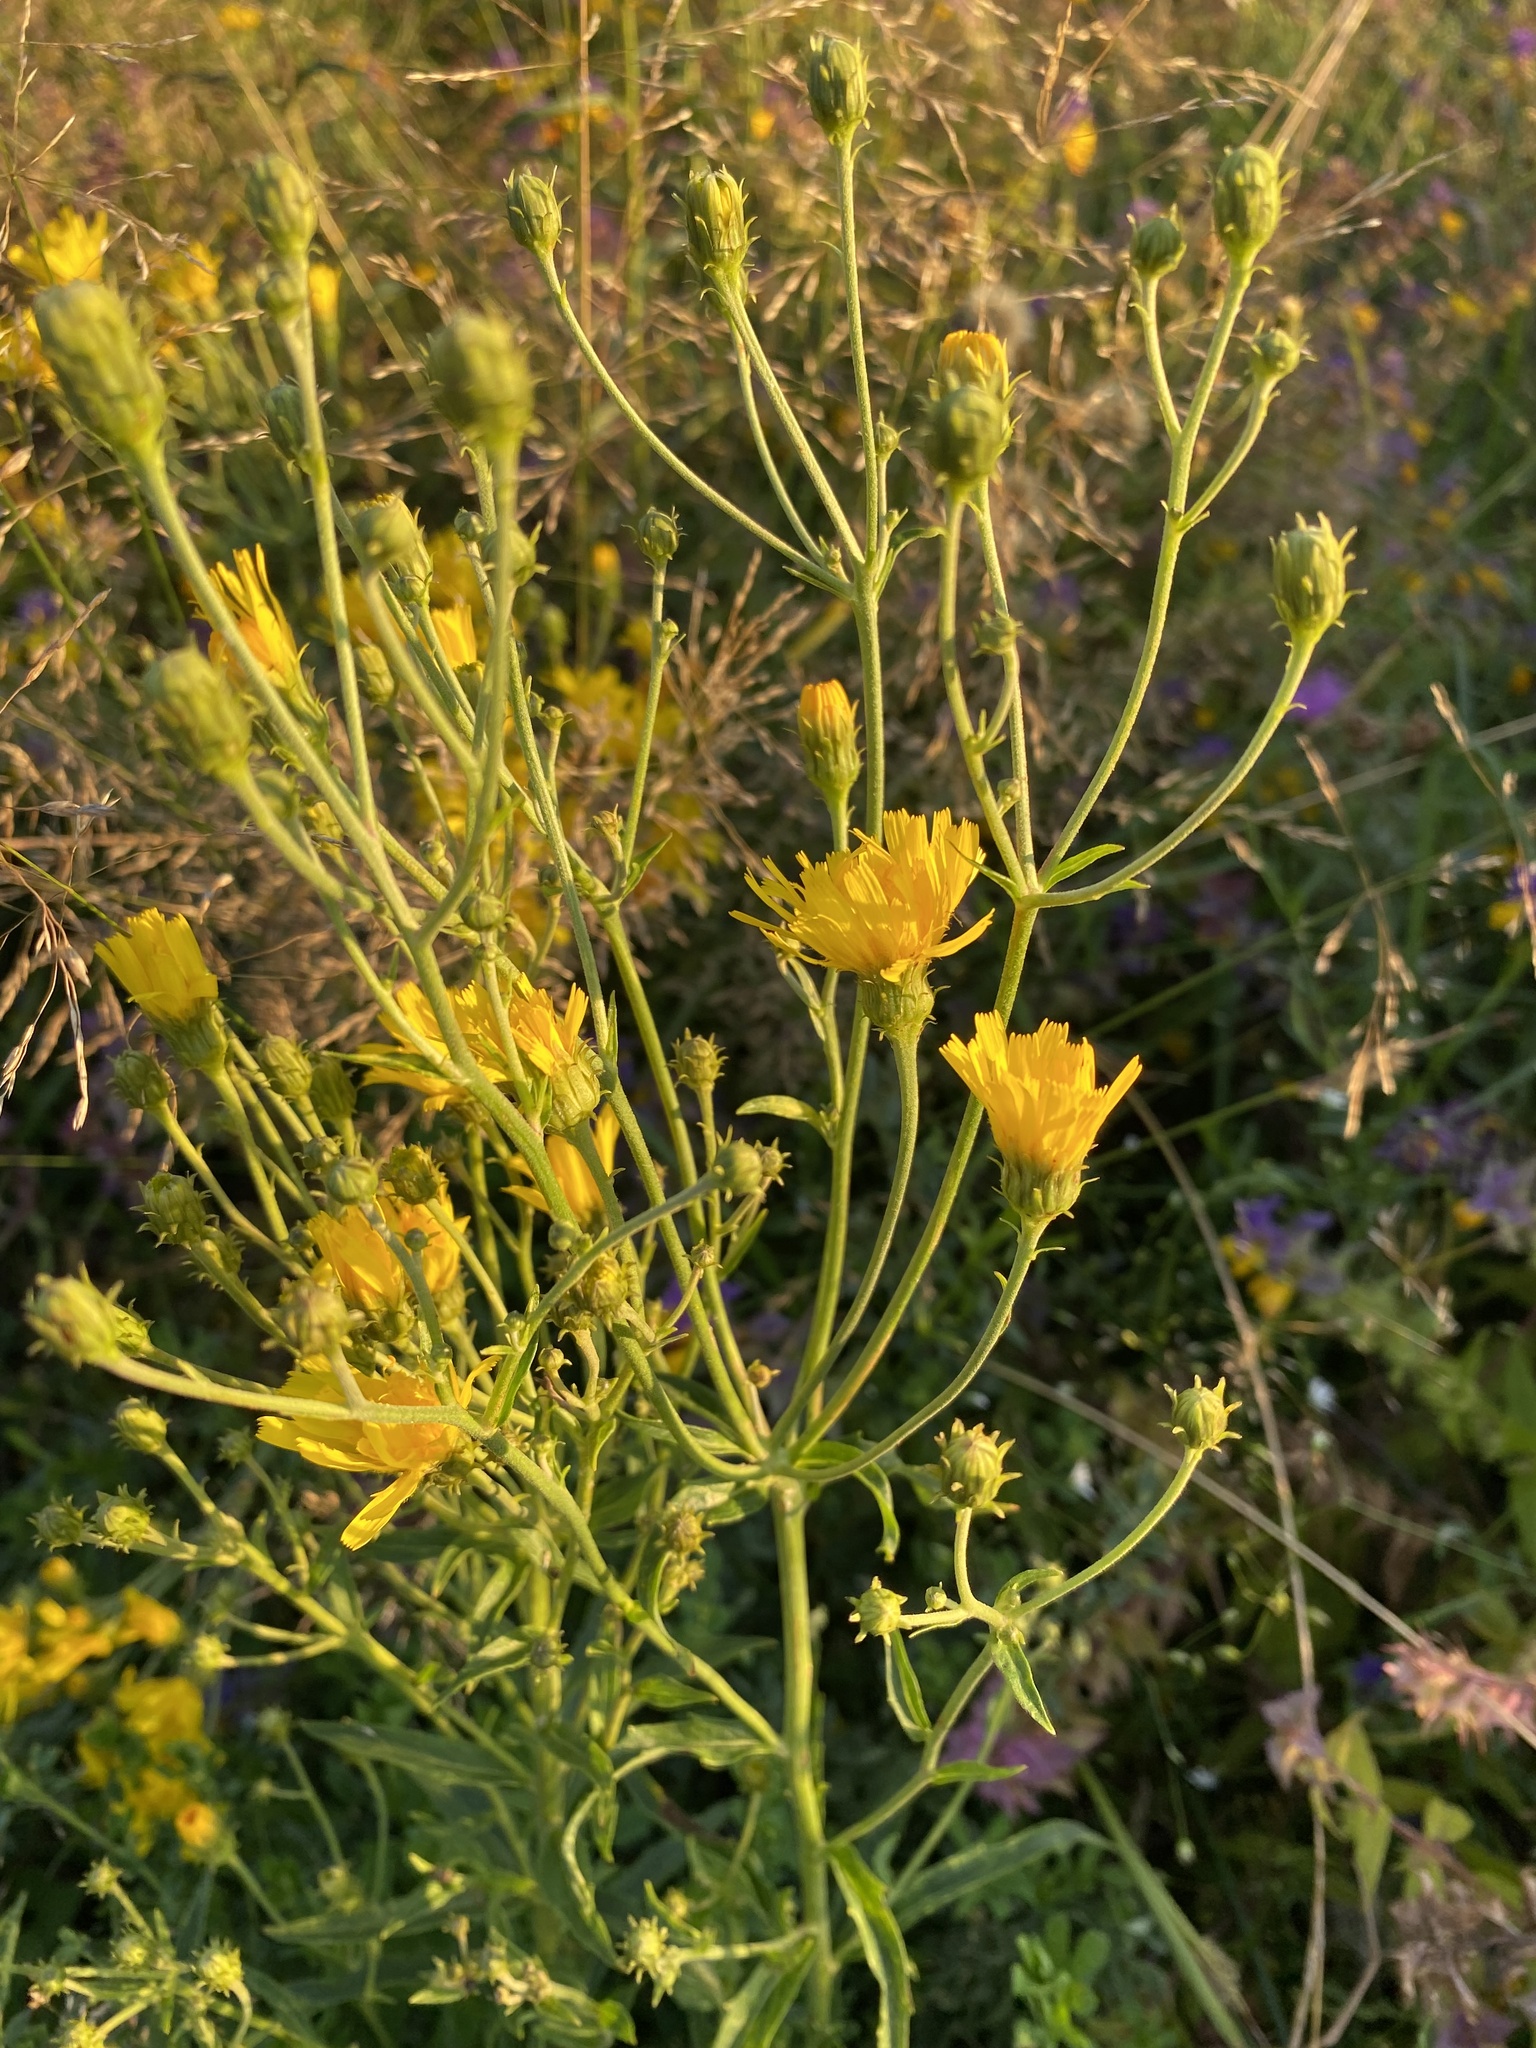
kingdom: Plantae
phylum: Tracheophyta
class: Magnoliopsida
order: Asterales
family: Asteraceae
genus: Hieracium
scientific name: Hieracium umbellatum
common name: Northern hawkweed
